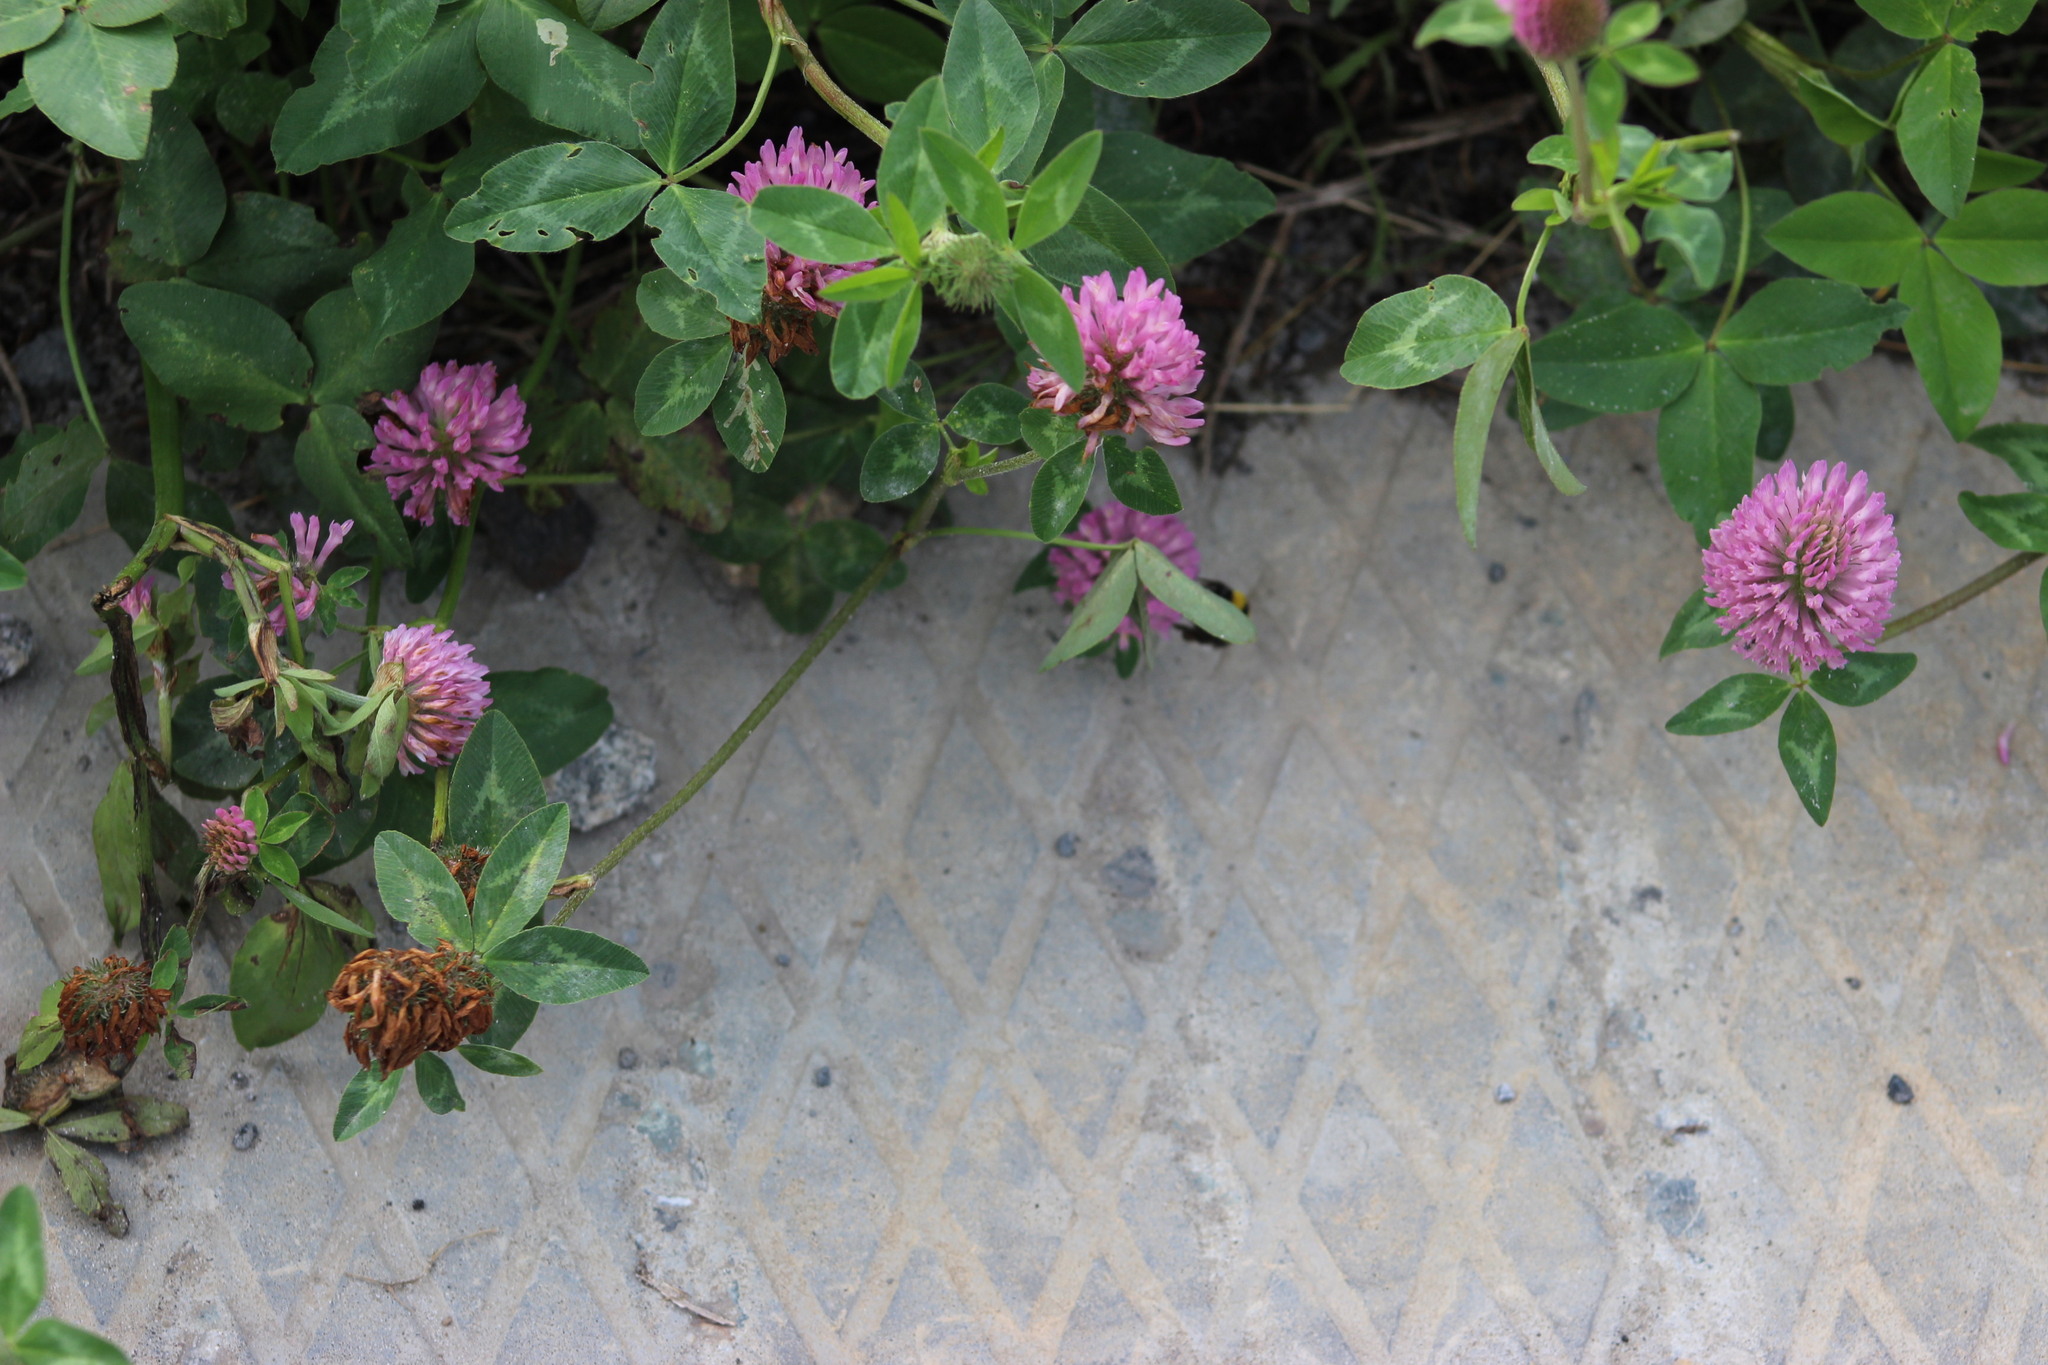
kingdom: Plantae
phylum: Tracheophyta
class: Magnoliopsida
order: Fabales
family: Fabaceae
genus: Trifolium
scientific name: Trifolium pratense
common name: Red clover
